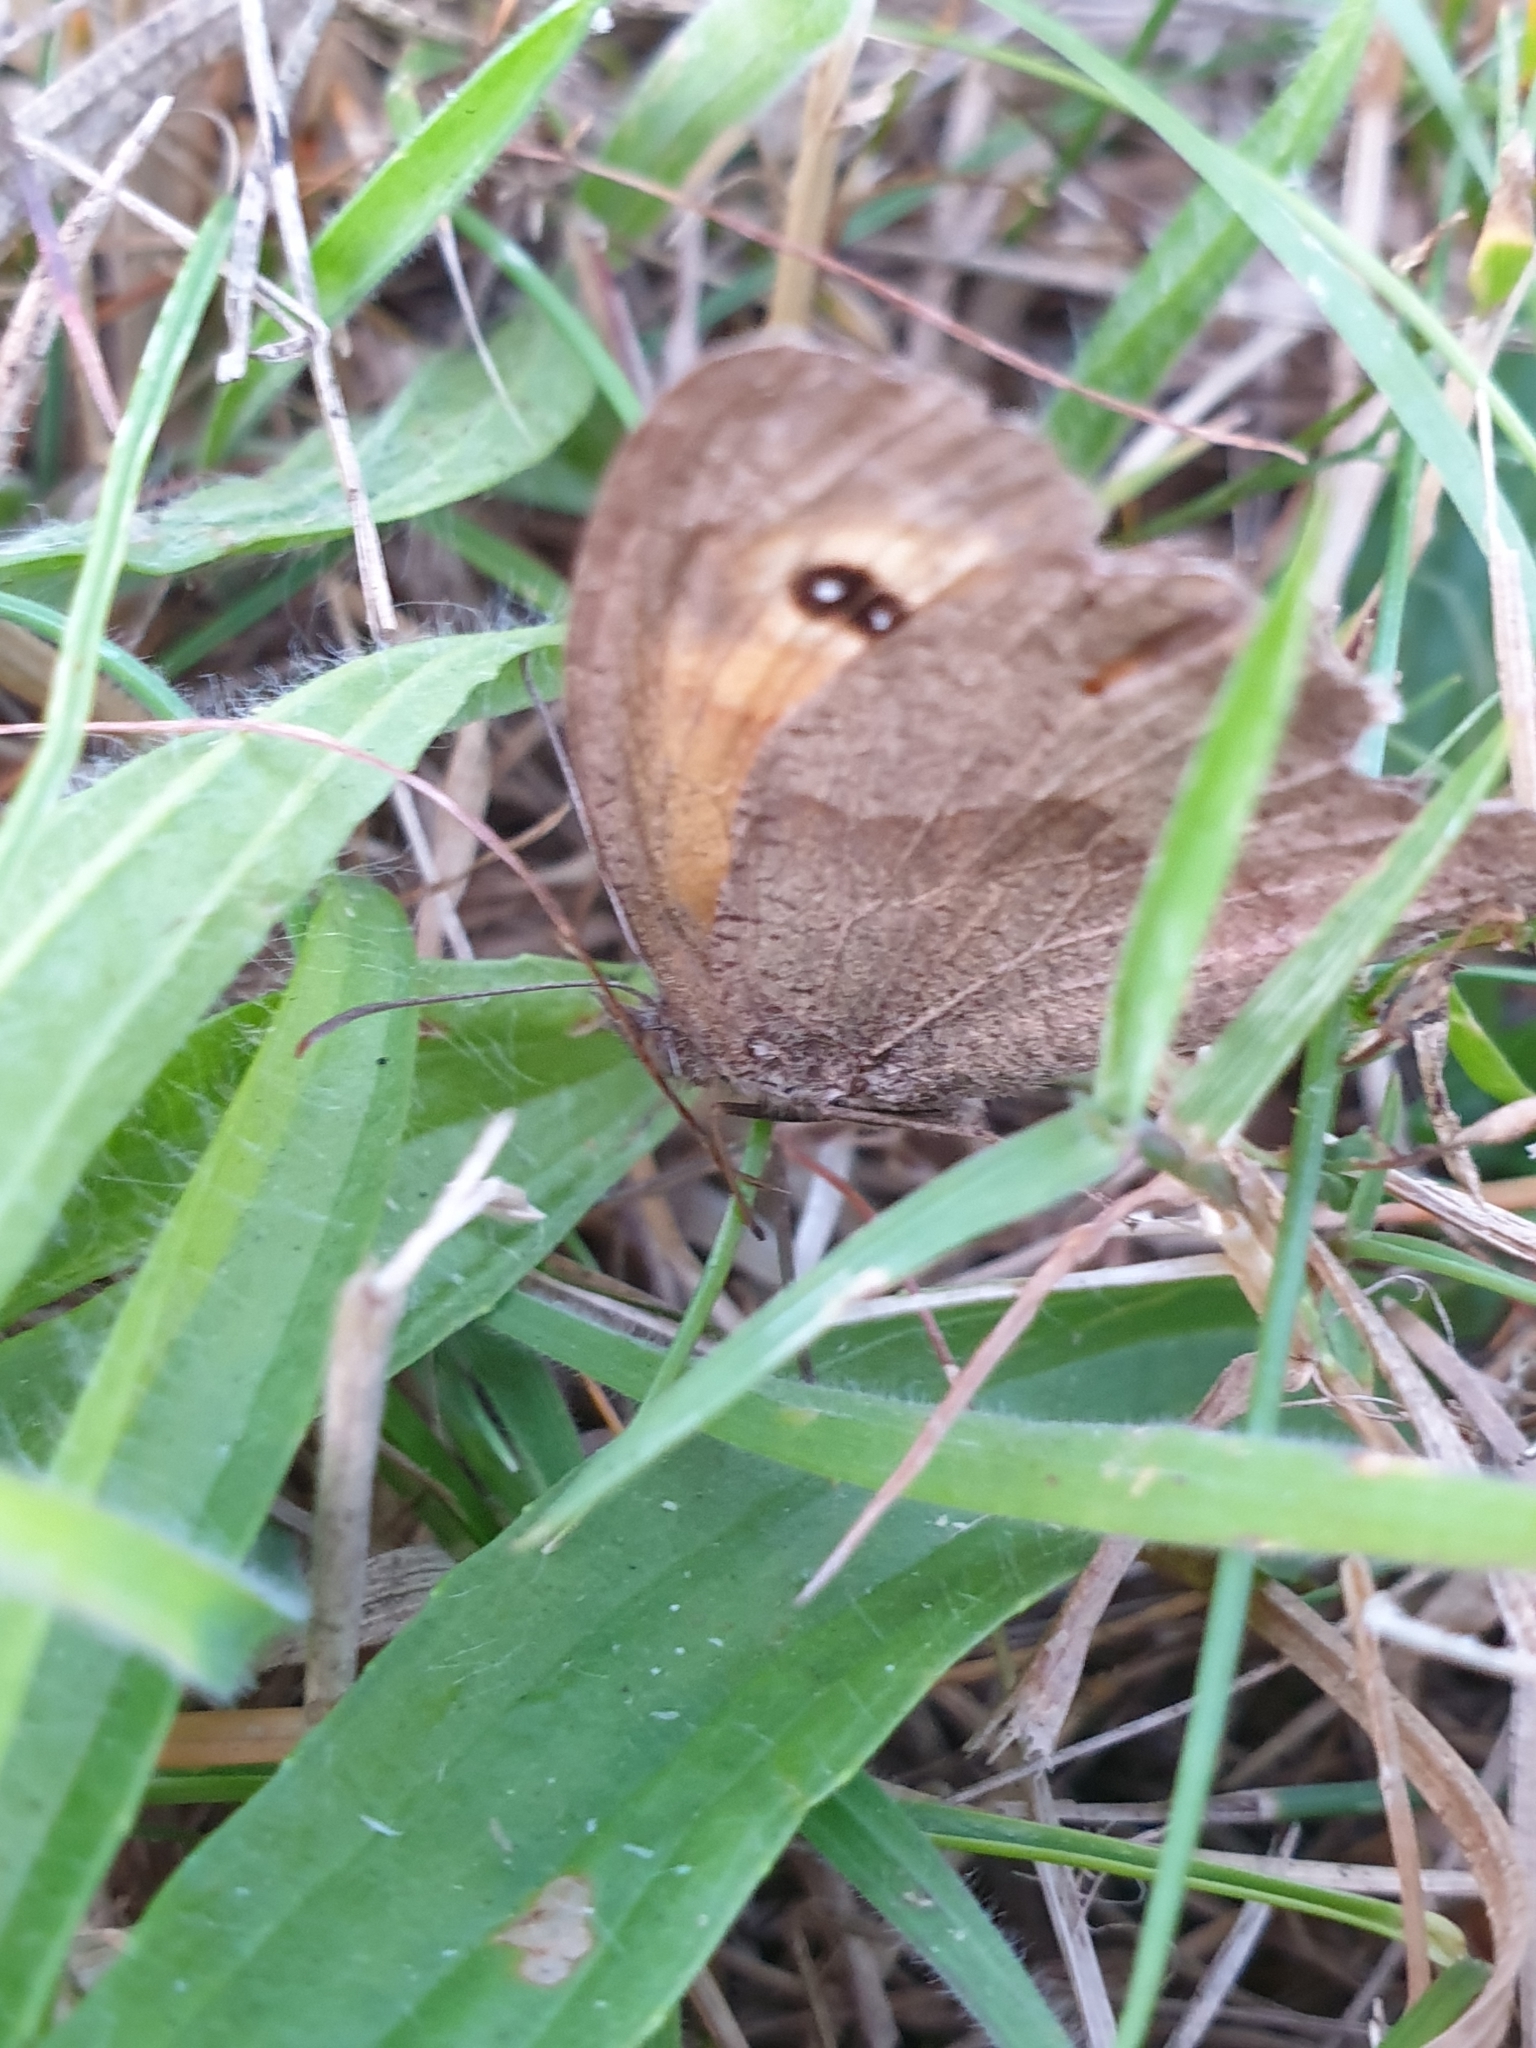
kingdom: Animalia
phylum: Arthropoda
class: Insecta
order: Lepidoptera
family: Nymphalidae
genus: Maniola
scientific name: Maniola jurtina
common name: Meadow brown
